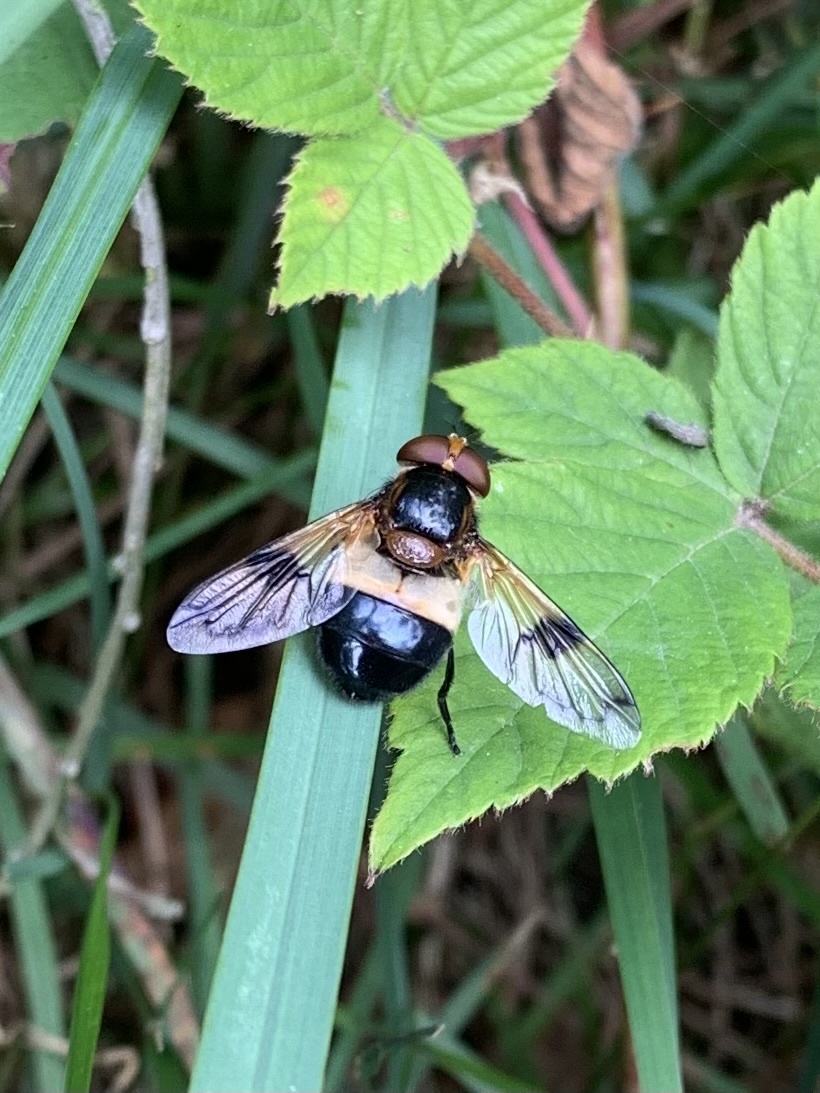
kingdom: Animalia
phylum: Arthropoda
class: Insecta
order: Diptera
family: Syrphidae
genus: Volucella
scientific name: Volucella pellucens
